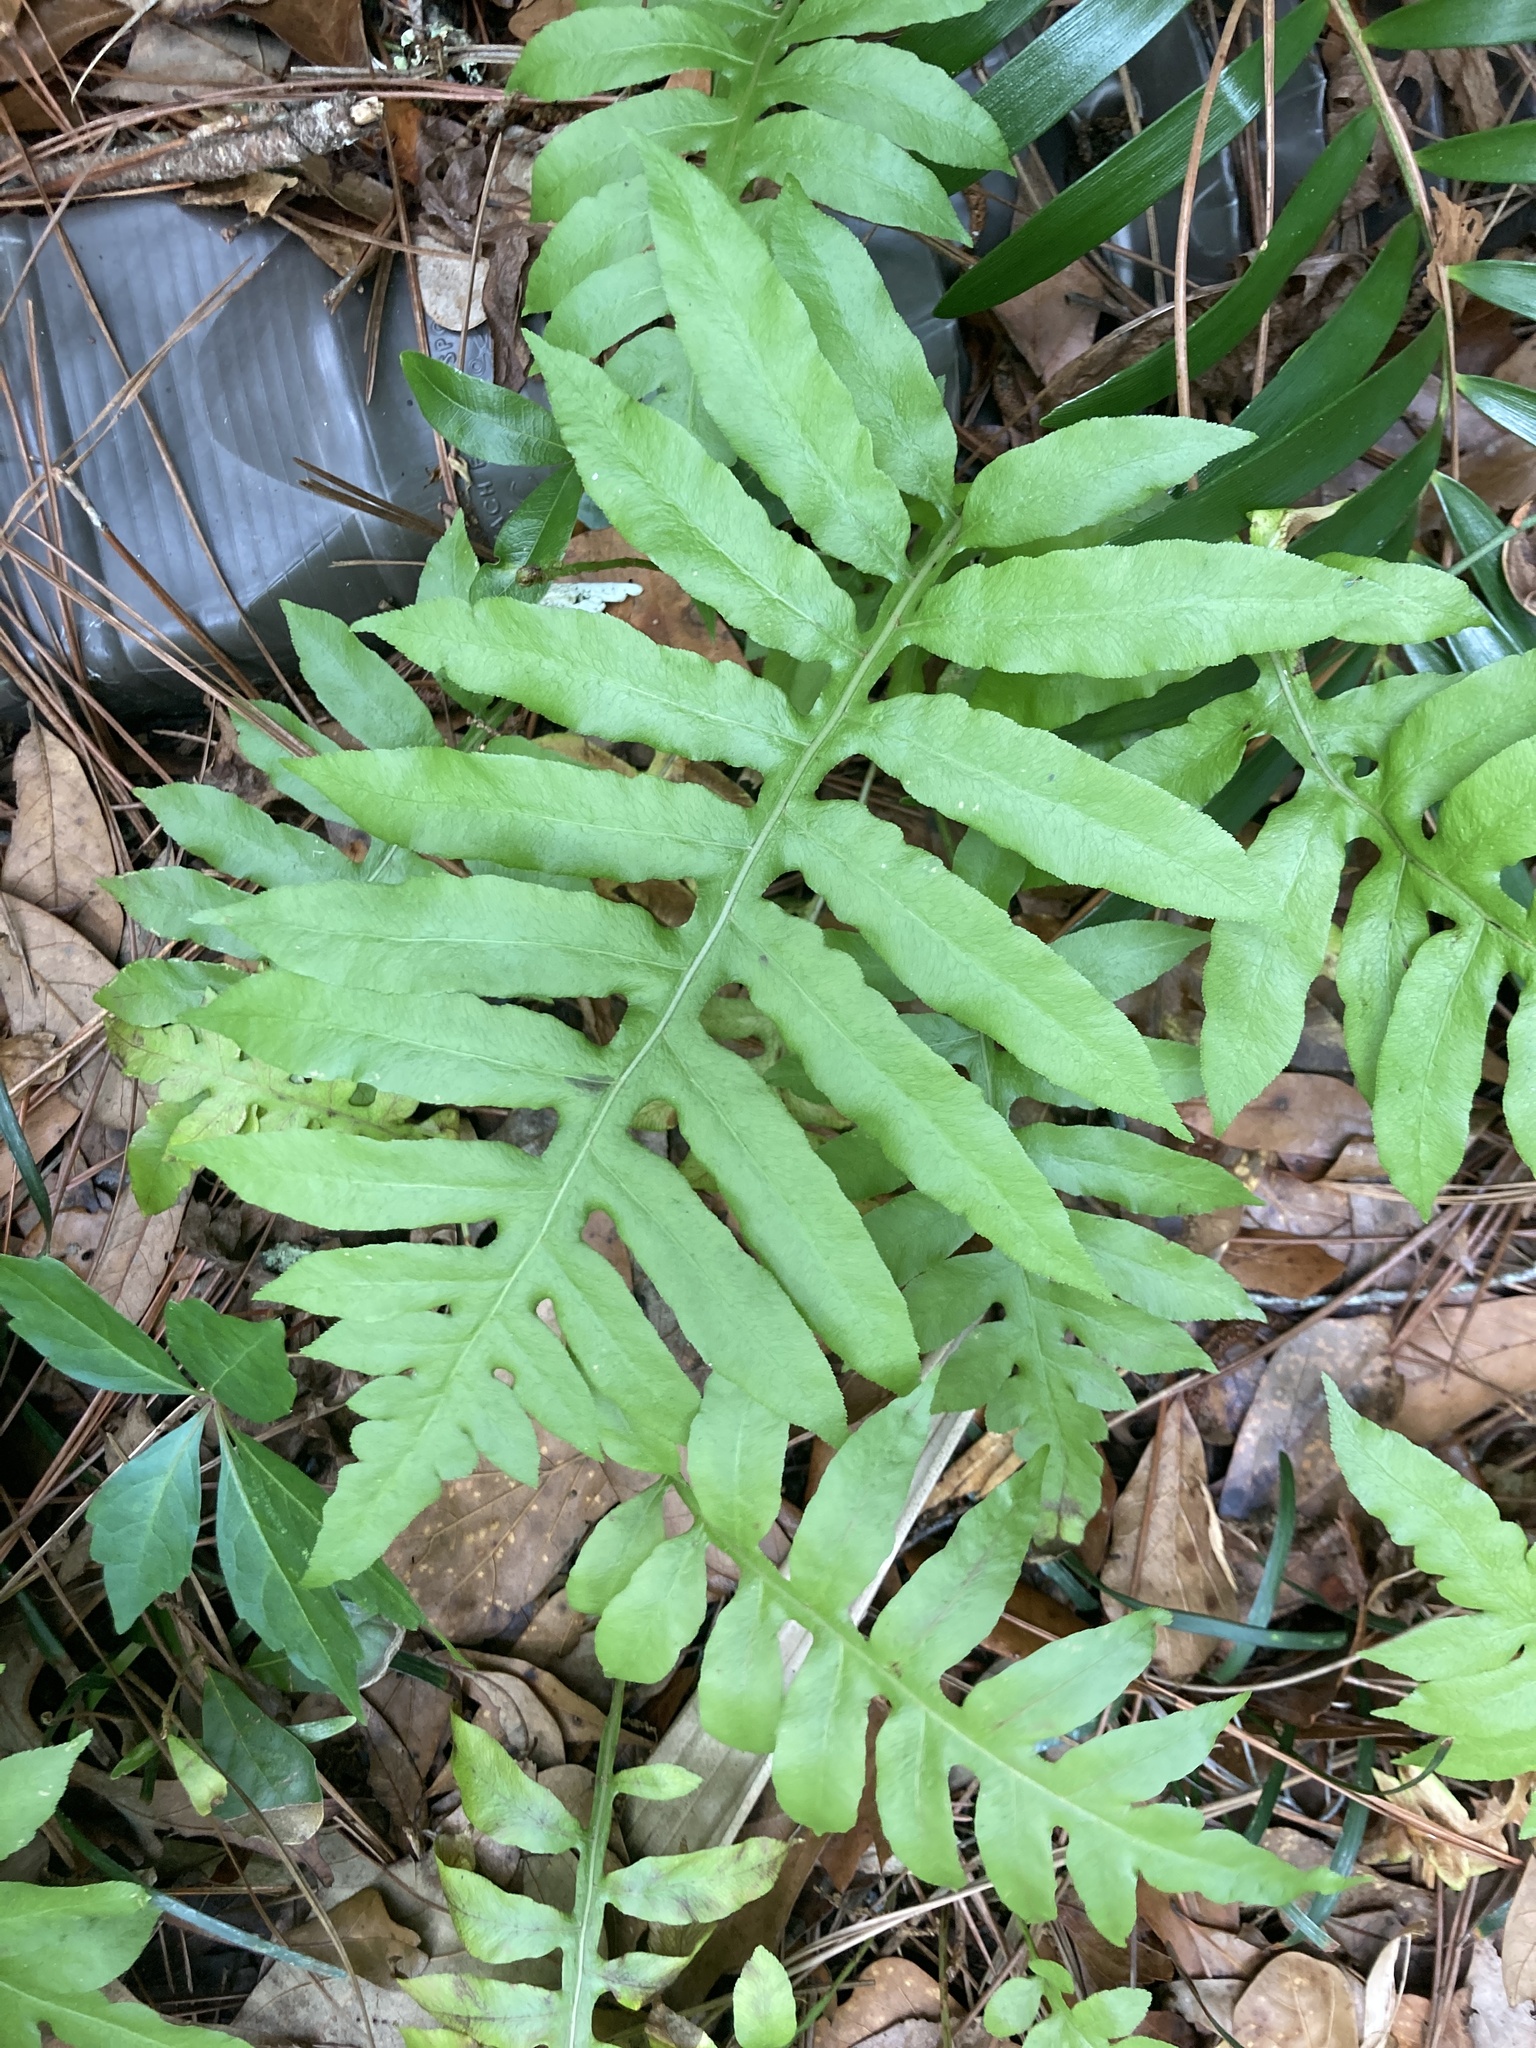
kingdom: Plantae
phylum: Tracheophyta
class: Polypodiopsida
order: Polypodiales
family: Blechnaceae
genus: Lorinseria
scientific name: Lorinseria areolata
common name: Dwarf chain fern
